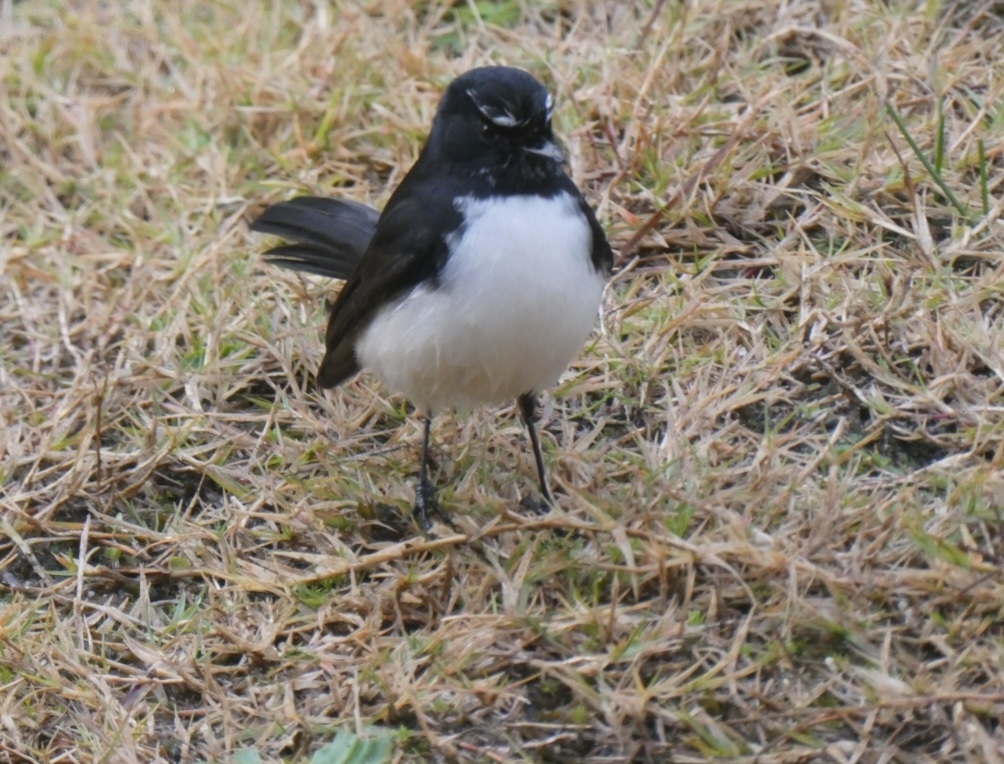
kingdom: Animalia
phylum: Chordata
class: Aves
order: Passeriformes
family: Rhipiduridae
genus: Rhipidura
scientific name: Rhipidura leucophrys
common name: Willie wagtail
